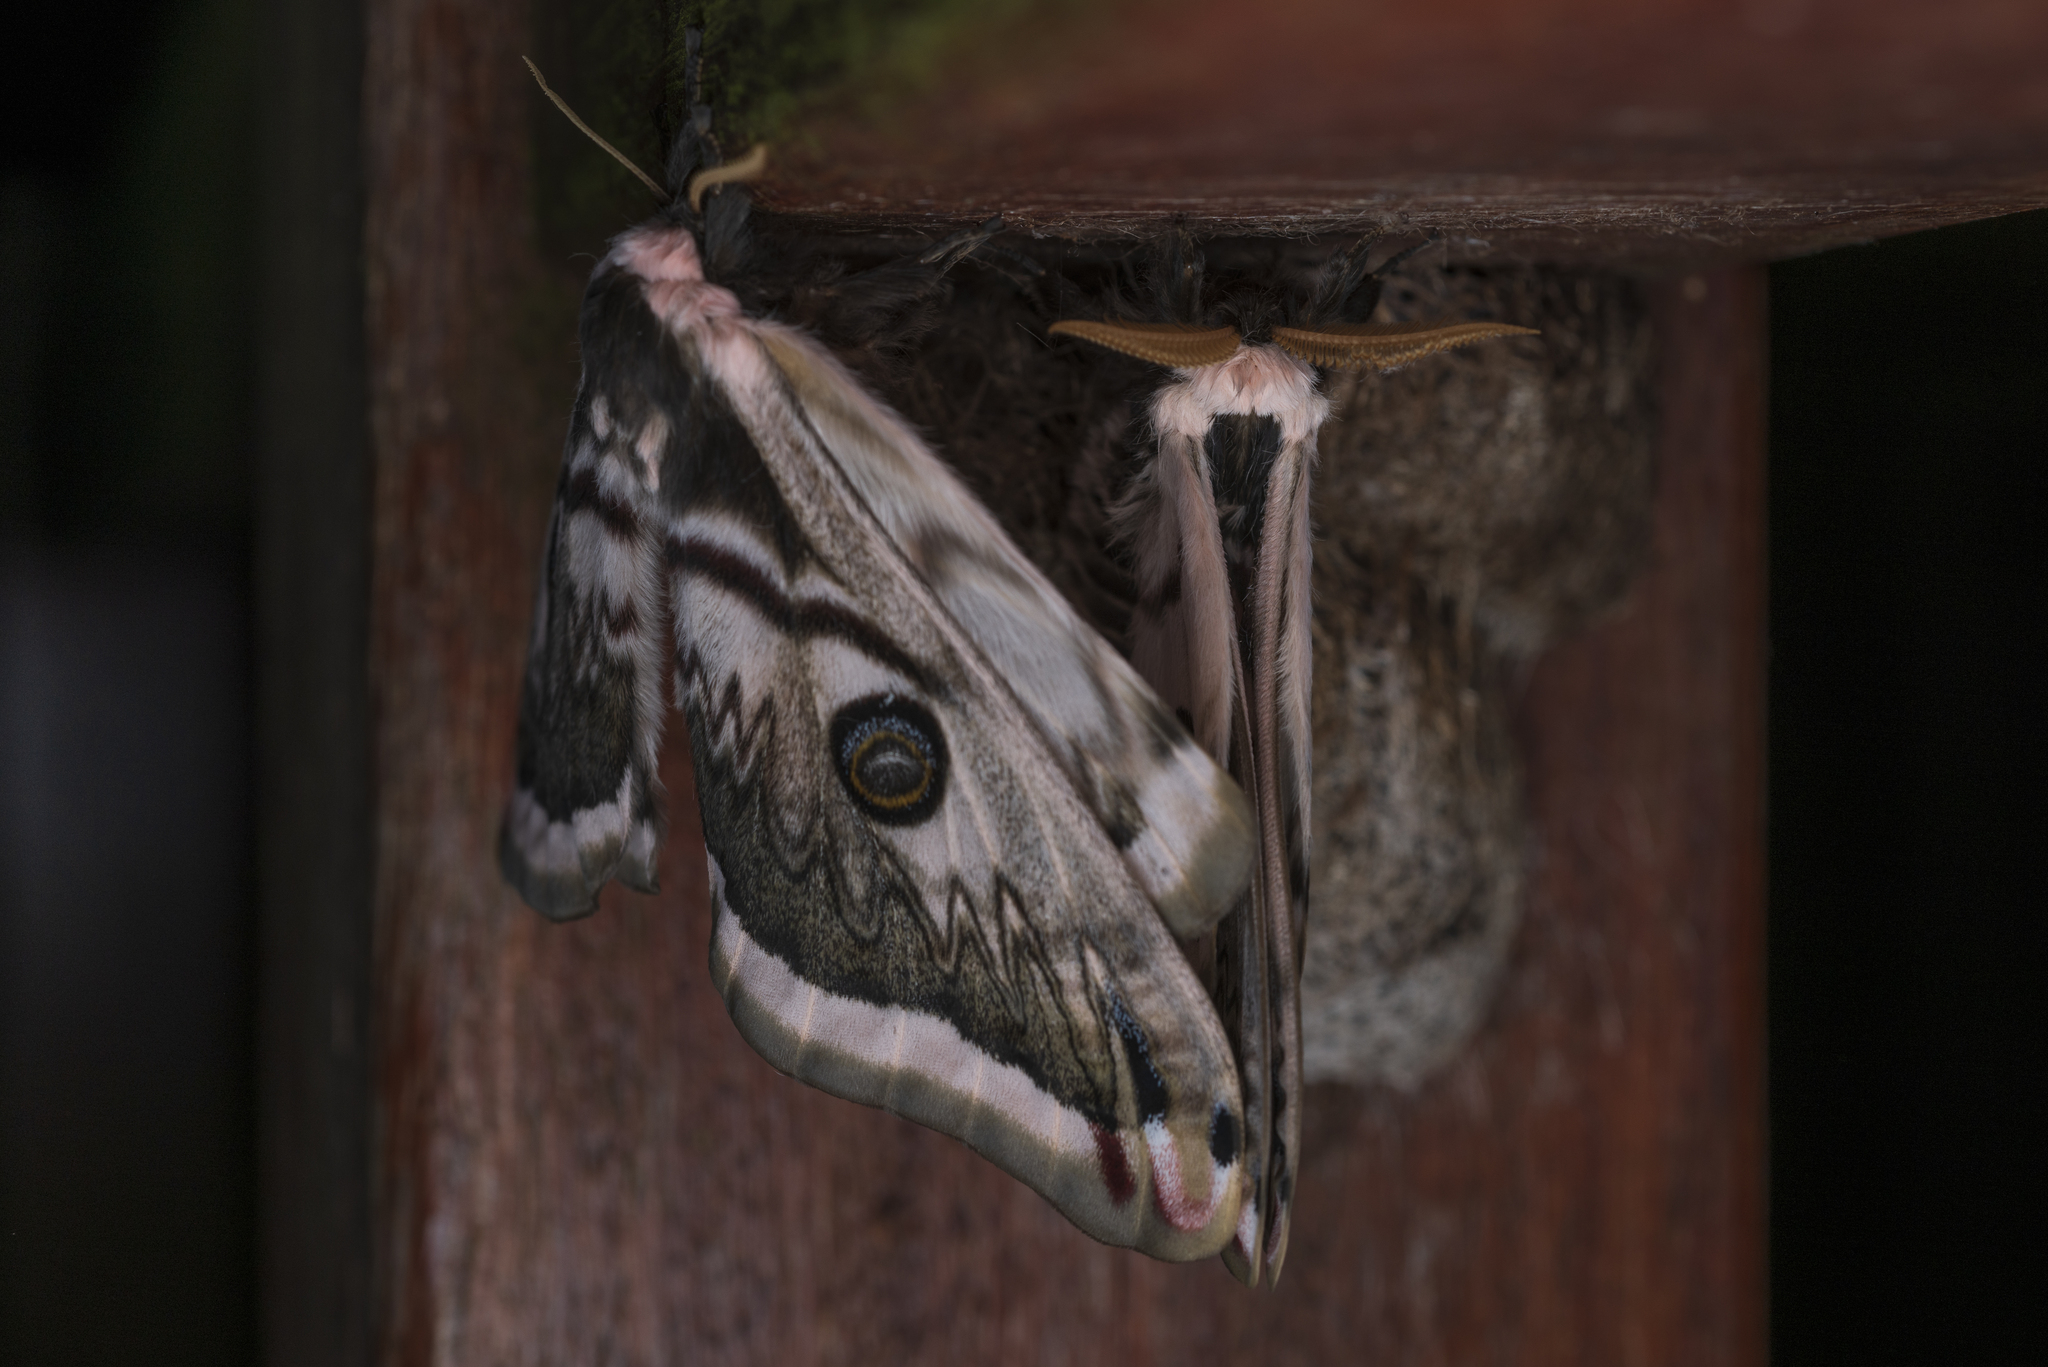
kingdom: Animalia
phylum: Arthropoda
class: Insecta
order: Lepidoptera
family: Saturniidae
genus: Saturnia
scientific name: Saturnia pyretorum
